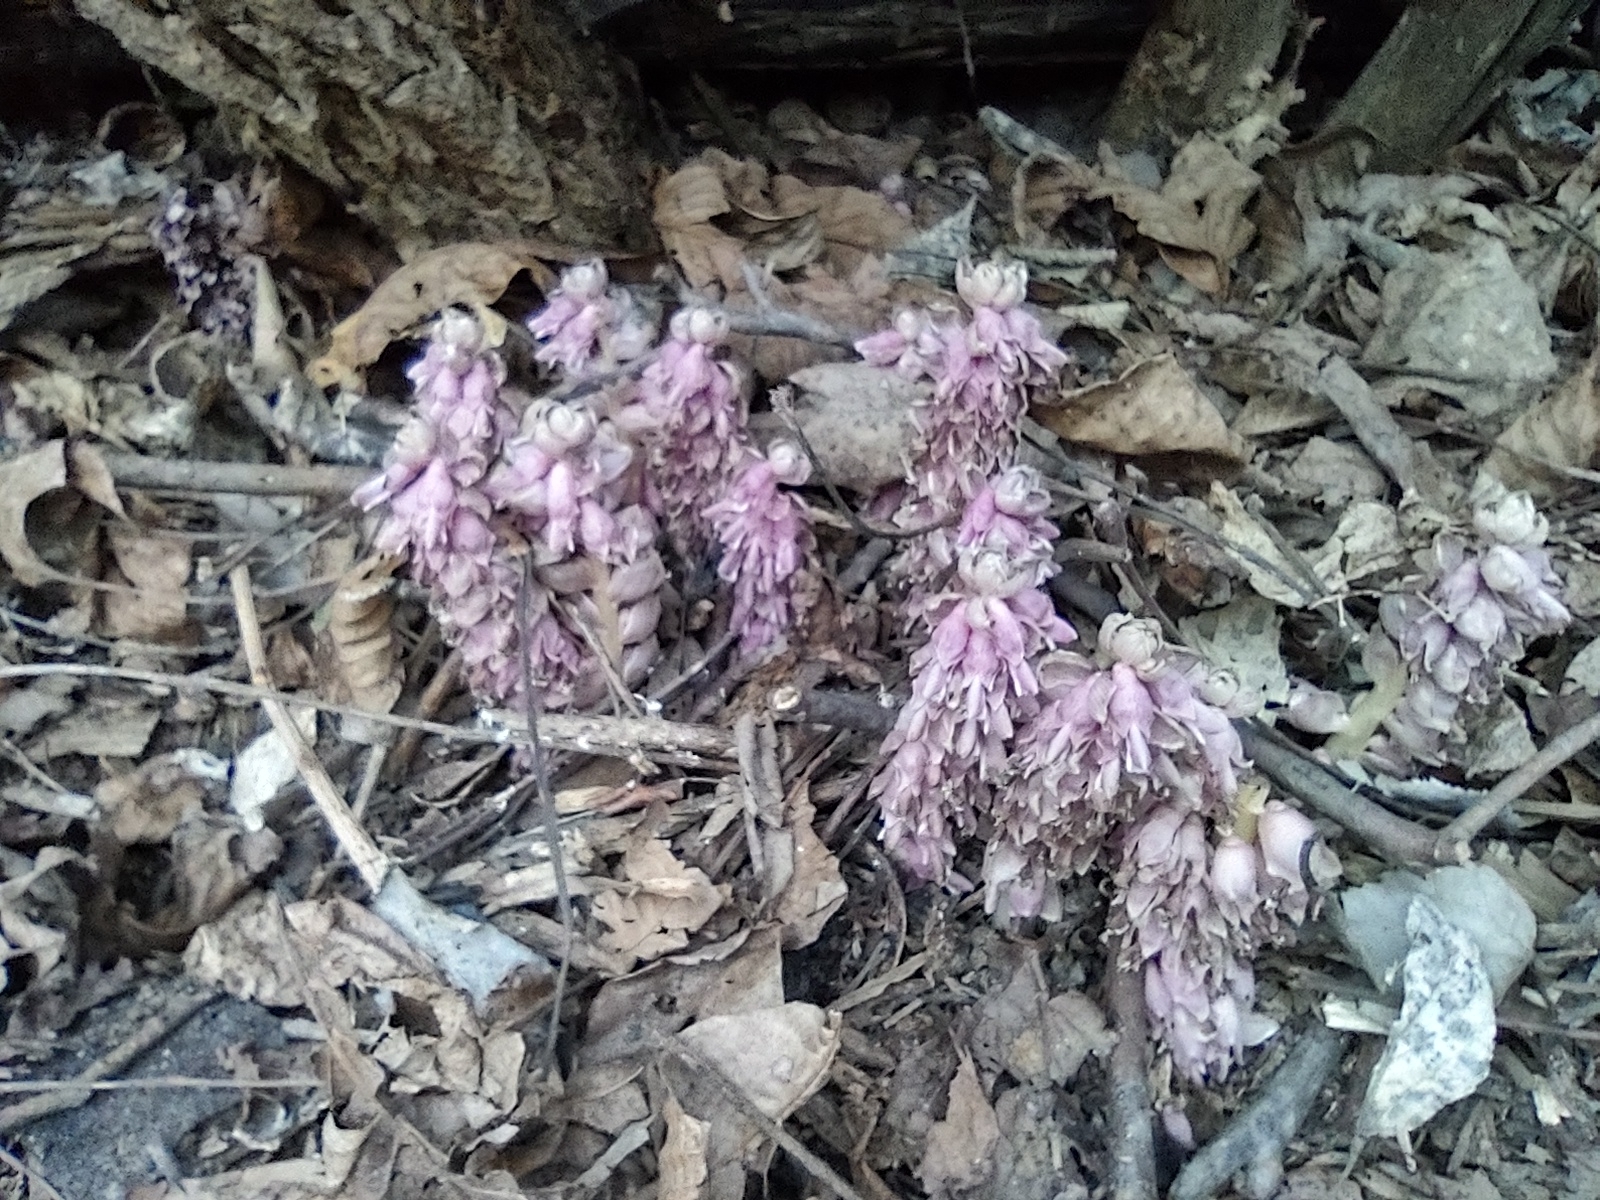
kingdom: Plantae
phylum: Tracheophyta
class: Magnoliopsida
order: Lamiales
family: Orobanchaceae
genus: Lathraea
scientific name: Lathraea squamaria
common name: Toothwort
